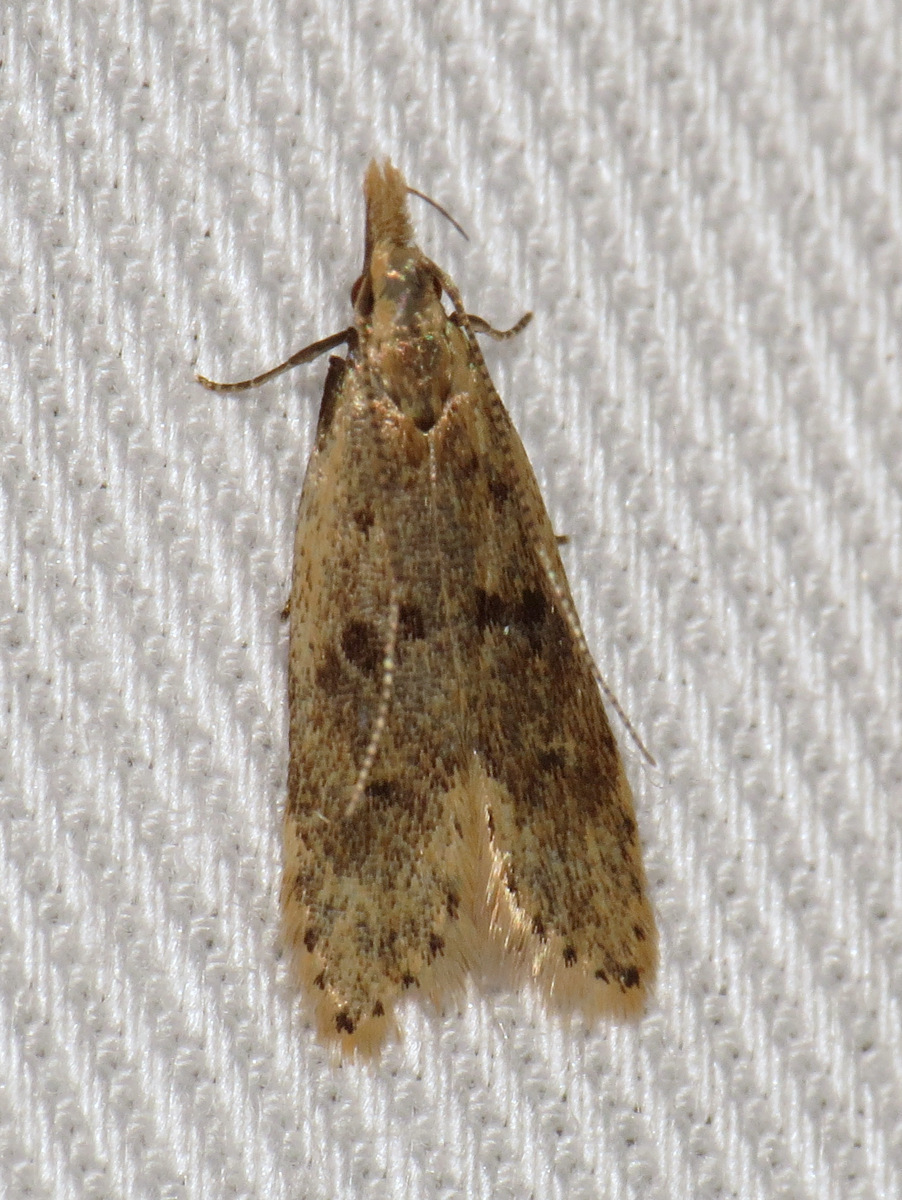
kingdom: Animalia
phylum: Arthropoda
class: Insecta
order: Lepidoptera
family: Gelechiidae
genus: Dichomeris
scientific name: Dichomeris punctipennella
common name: Many-spotted dichomeris moth
